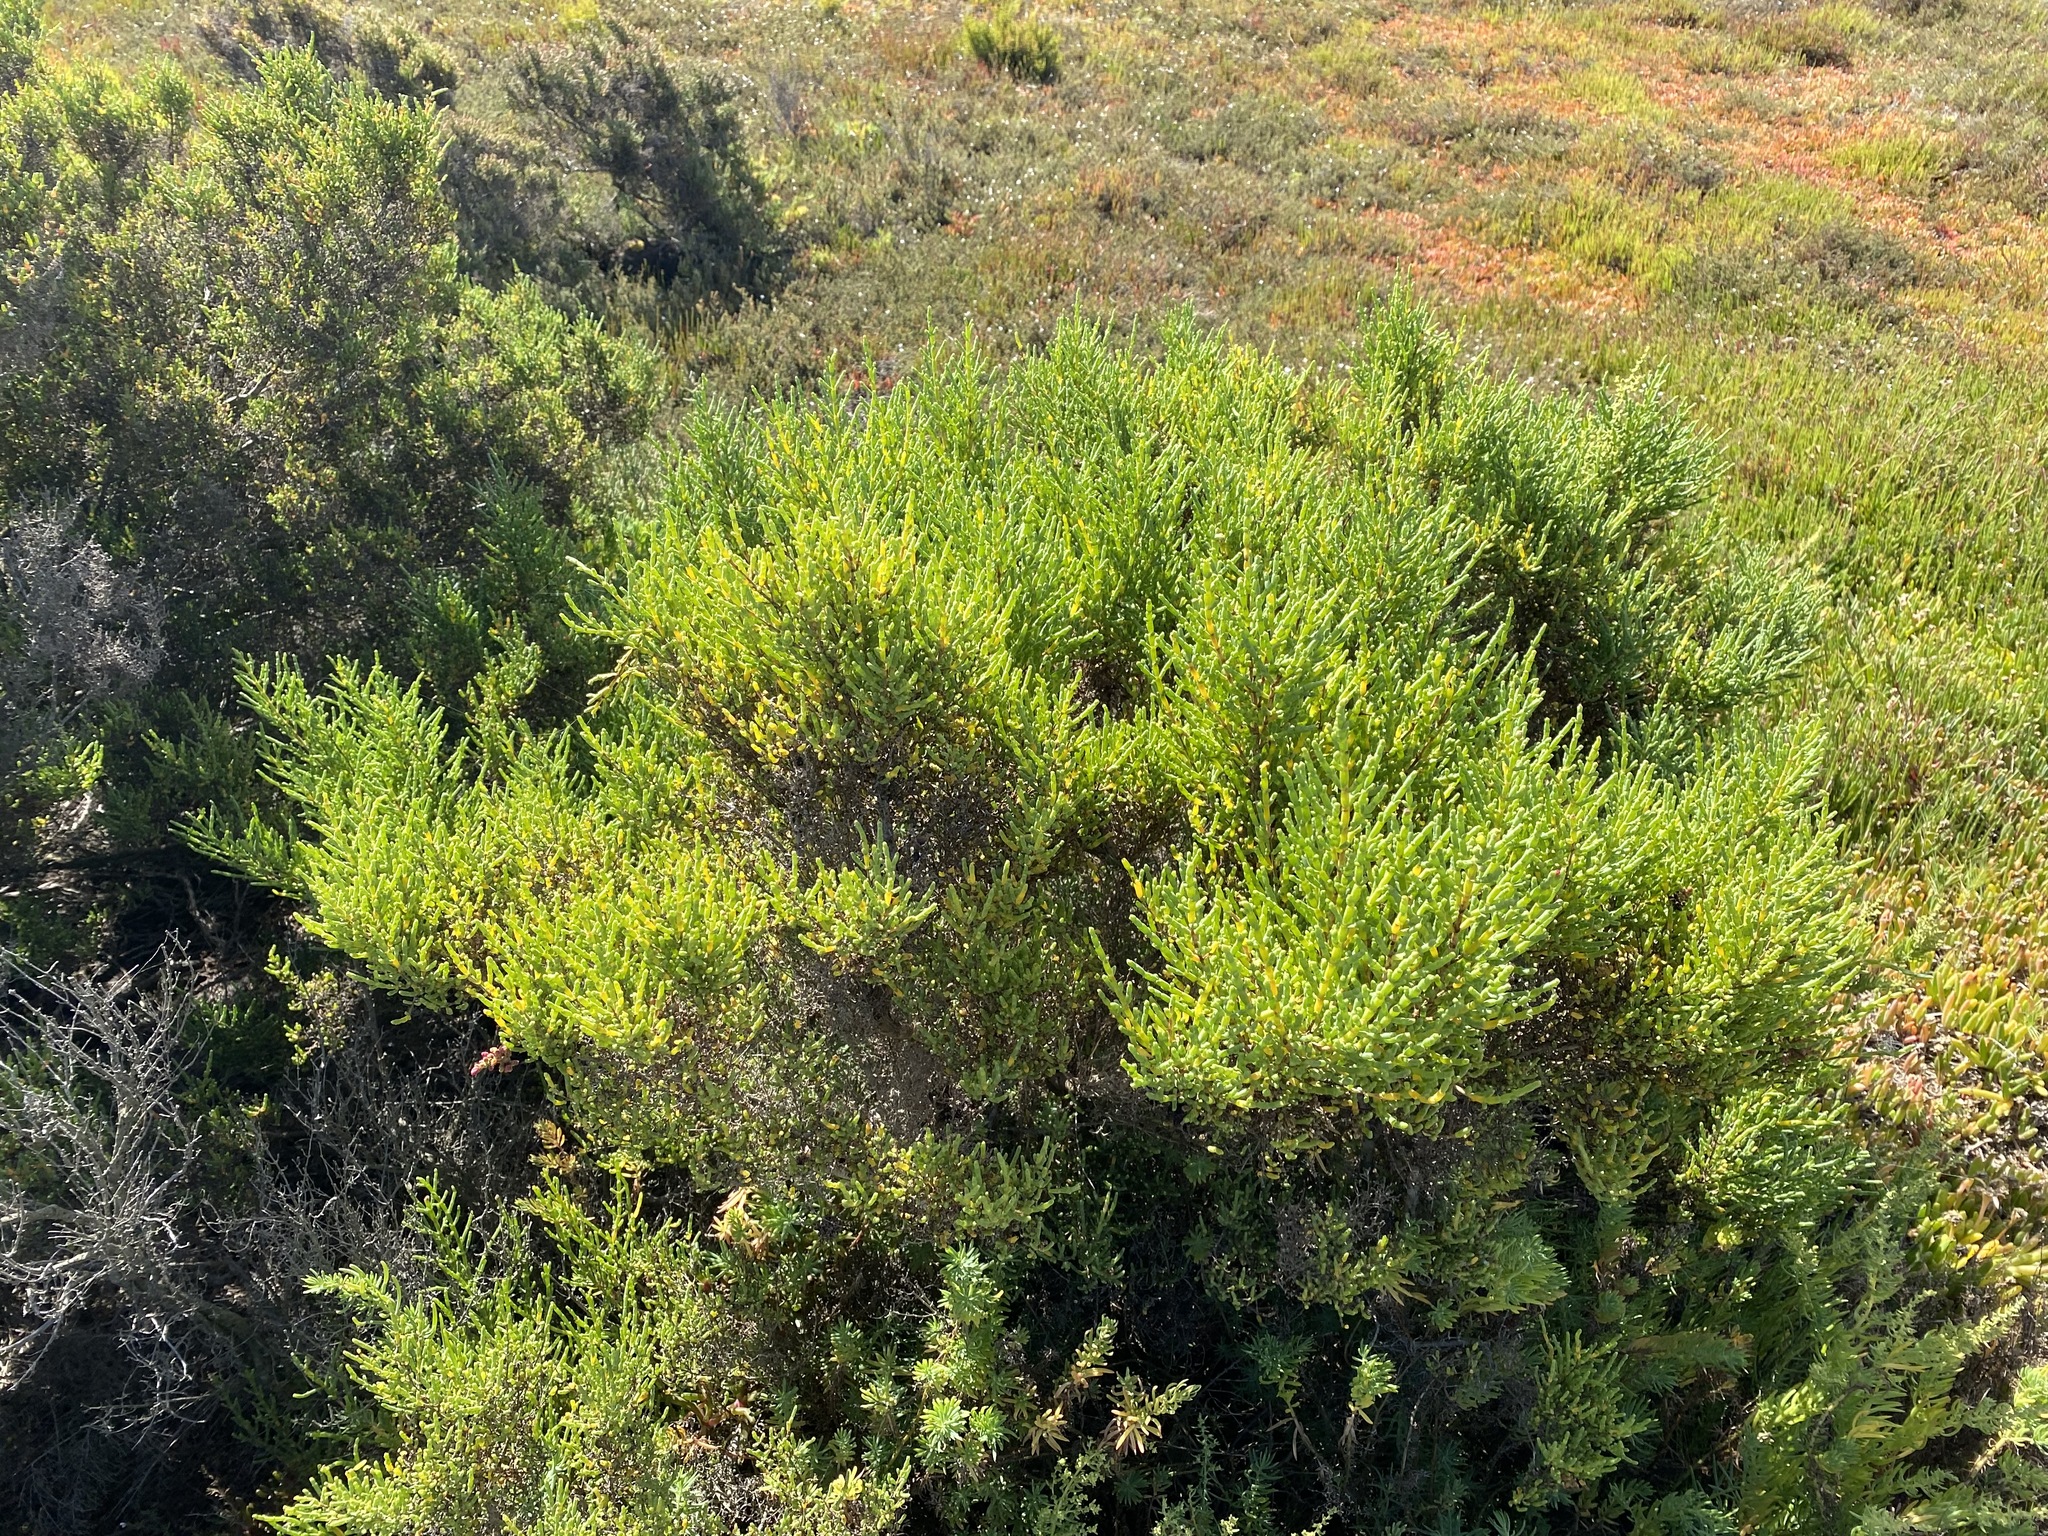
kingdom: Plantae
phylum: Tracheophyta
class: Magnoliopsida
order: Caryophyllales
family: Amaranthaceae
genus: Tecticornia
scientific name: Tecticornia arbuscula
